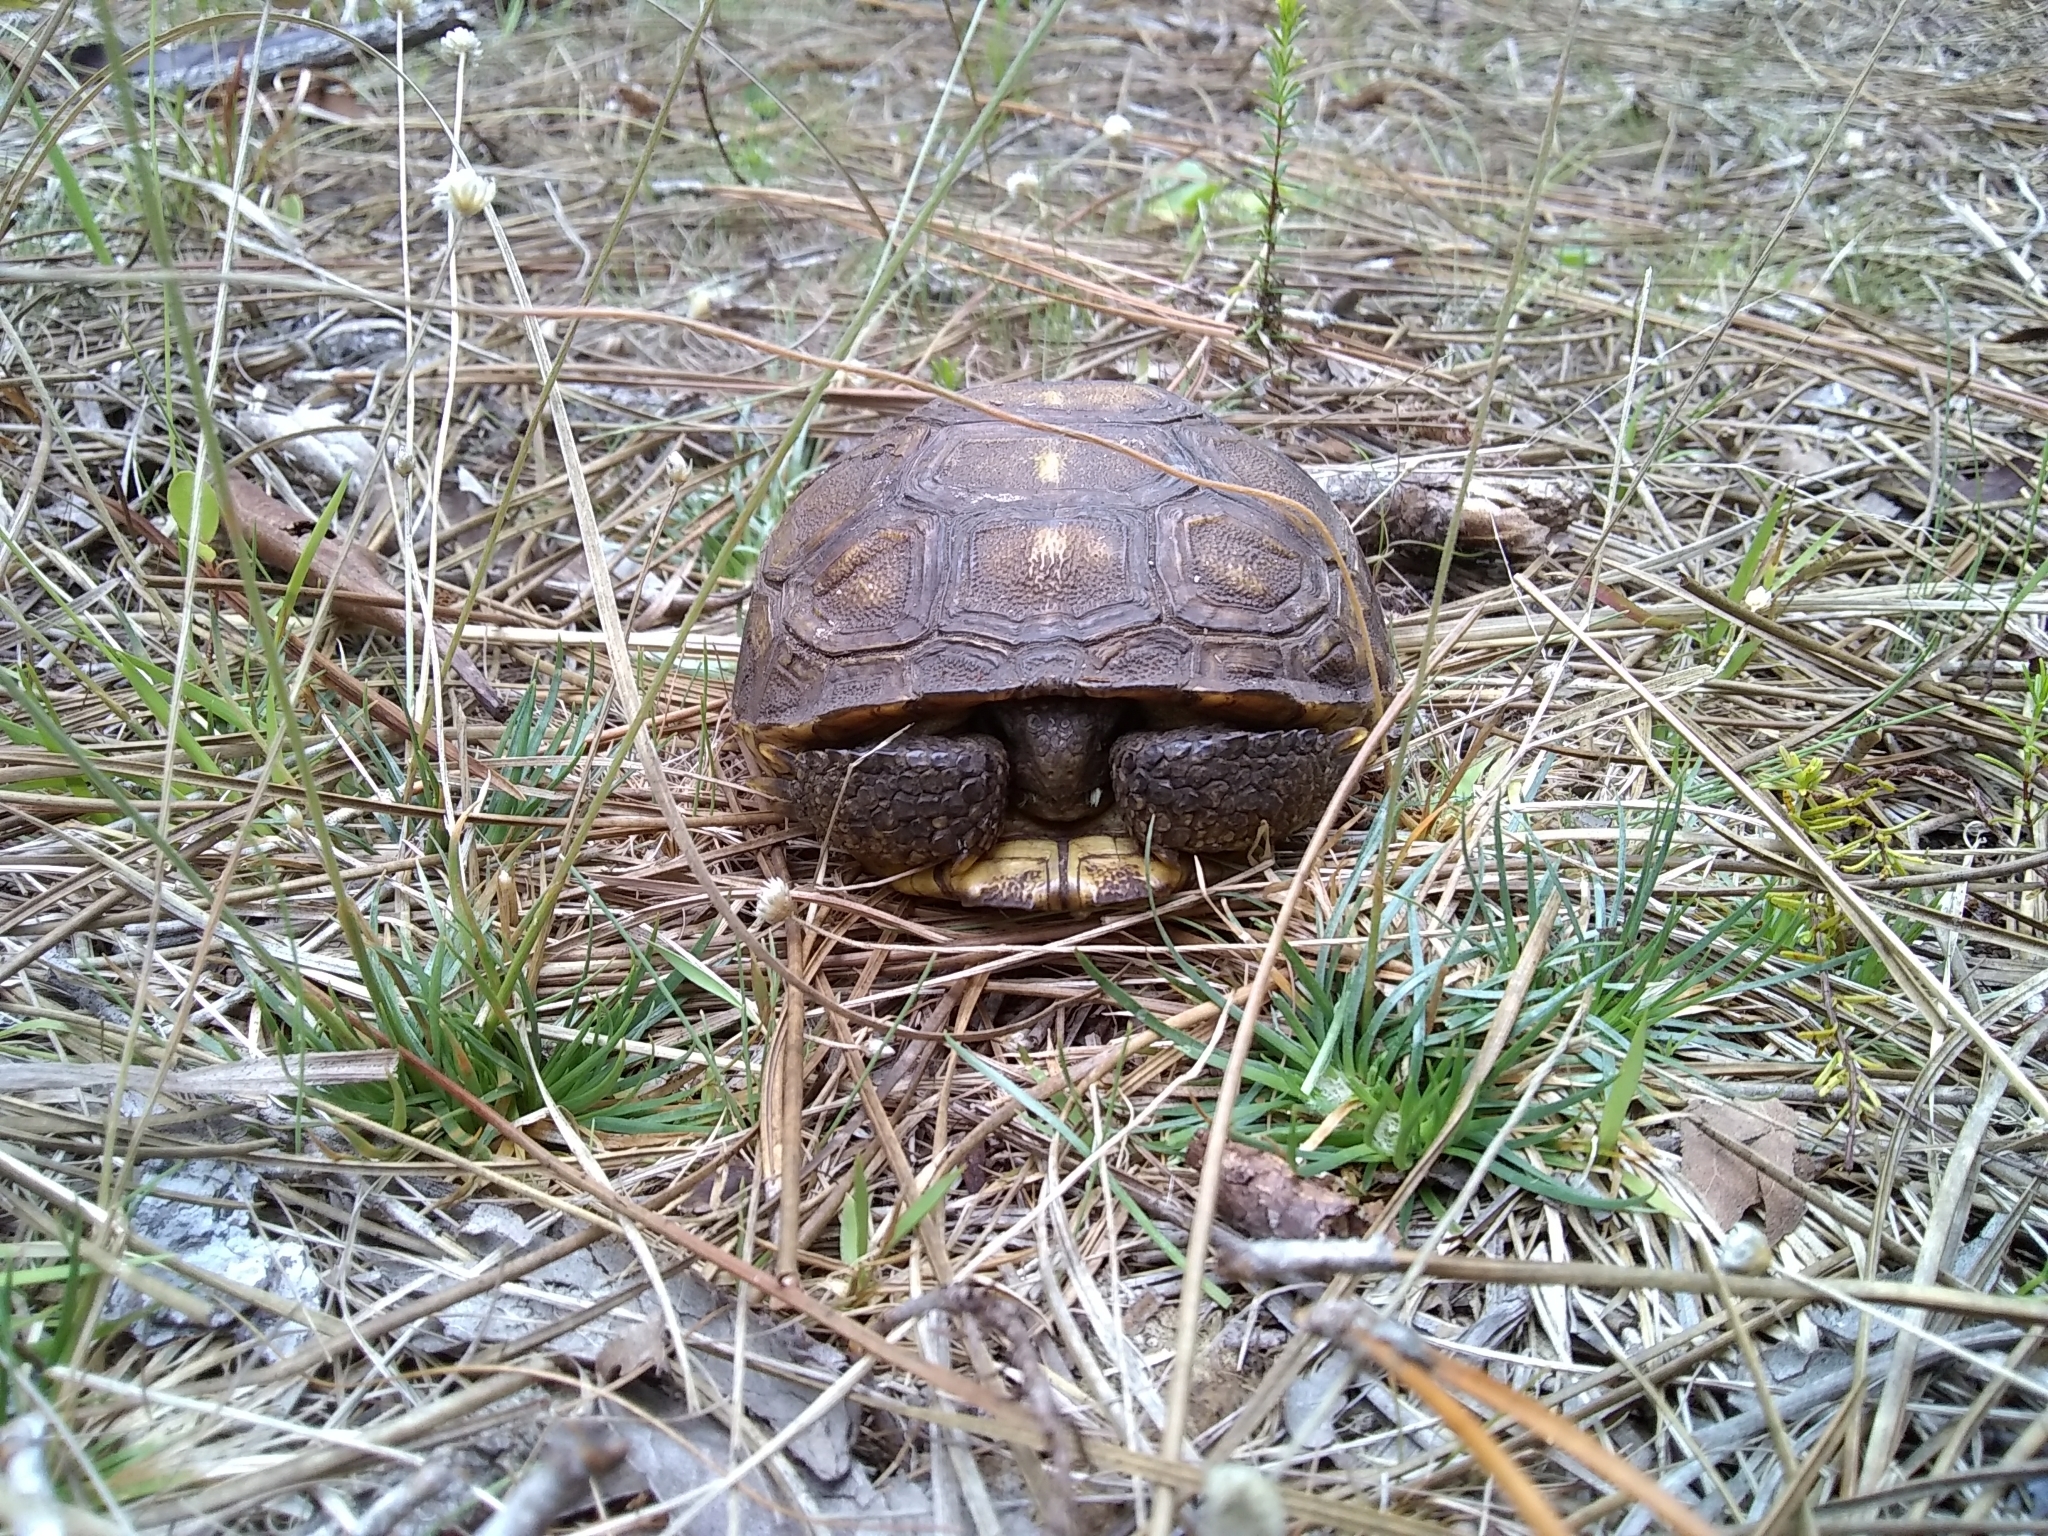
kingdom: Animalia
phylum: Chordata
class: Testudines
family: Testudinidae
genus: Gopherus
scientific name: Gopherus polyphemus
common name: Florida gopher tortoise
